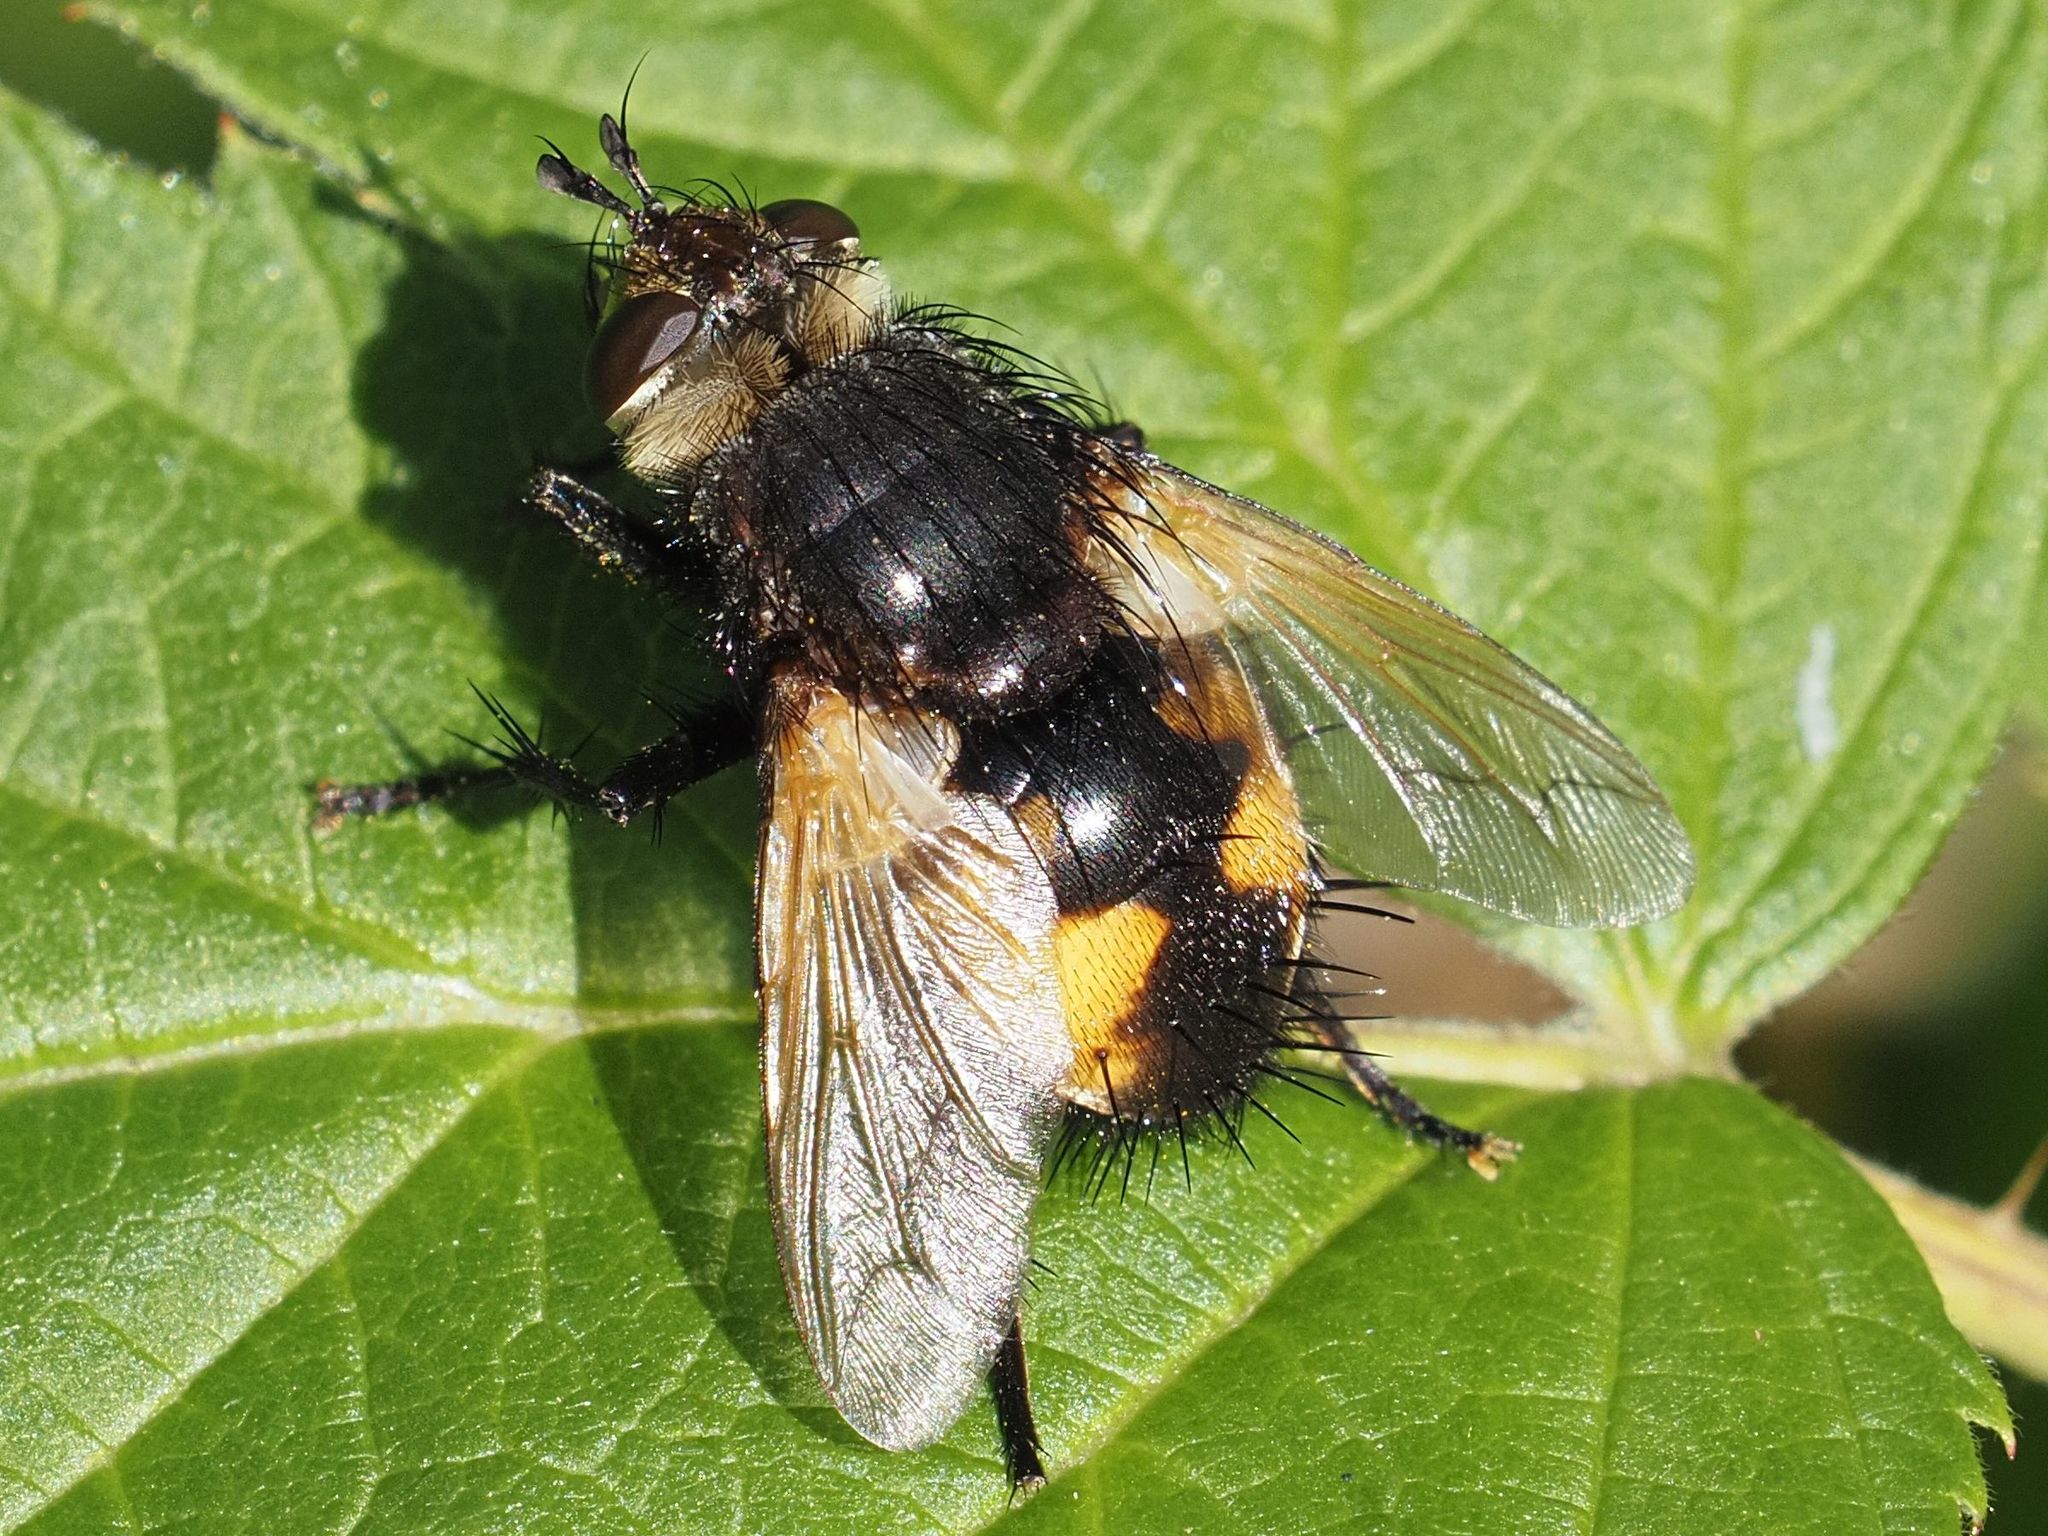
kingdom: Animalia
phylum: Arthropoda
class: Insecta
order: Diptera
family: Tachinidae
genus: Nowickia
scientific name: Nowickia ferox
